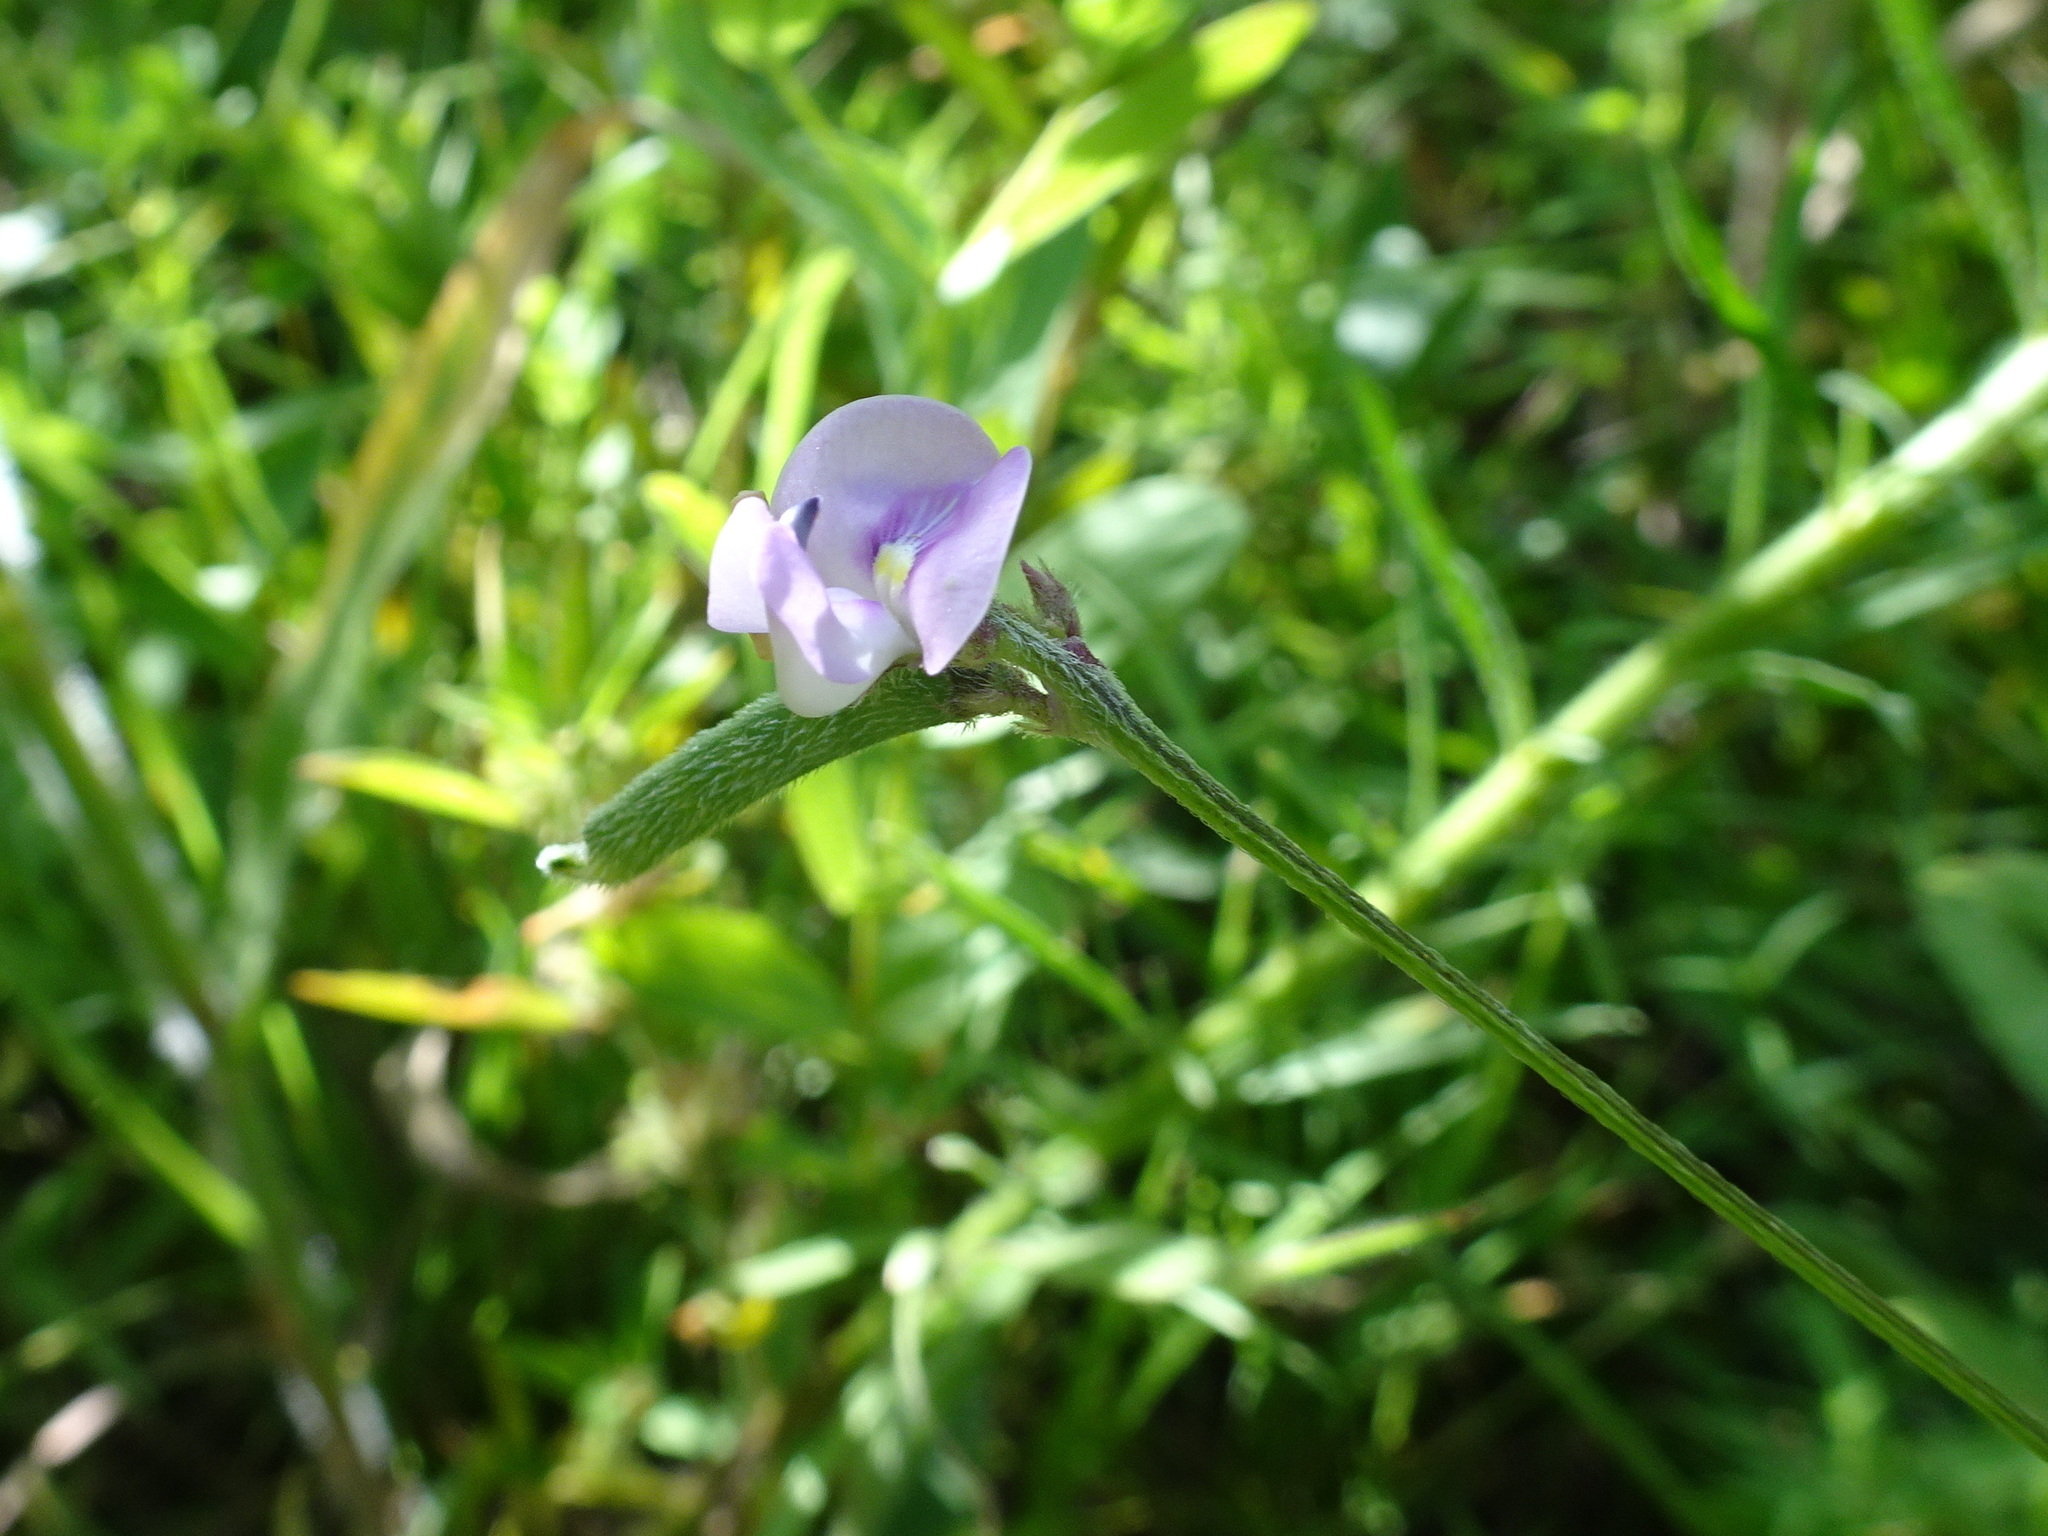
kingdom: Plantae
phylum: Tracheophyta
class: Magnoliopsida
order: Fabales
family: Fabaceae
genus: Strophostyles
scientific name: Strophostyles leiosperma
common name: Smooth-seed wild bean
